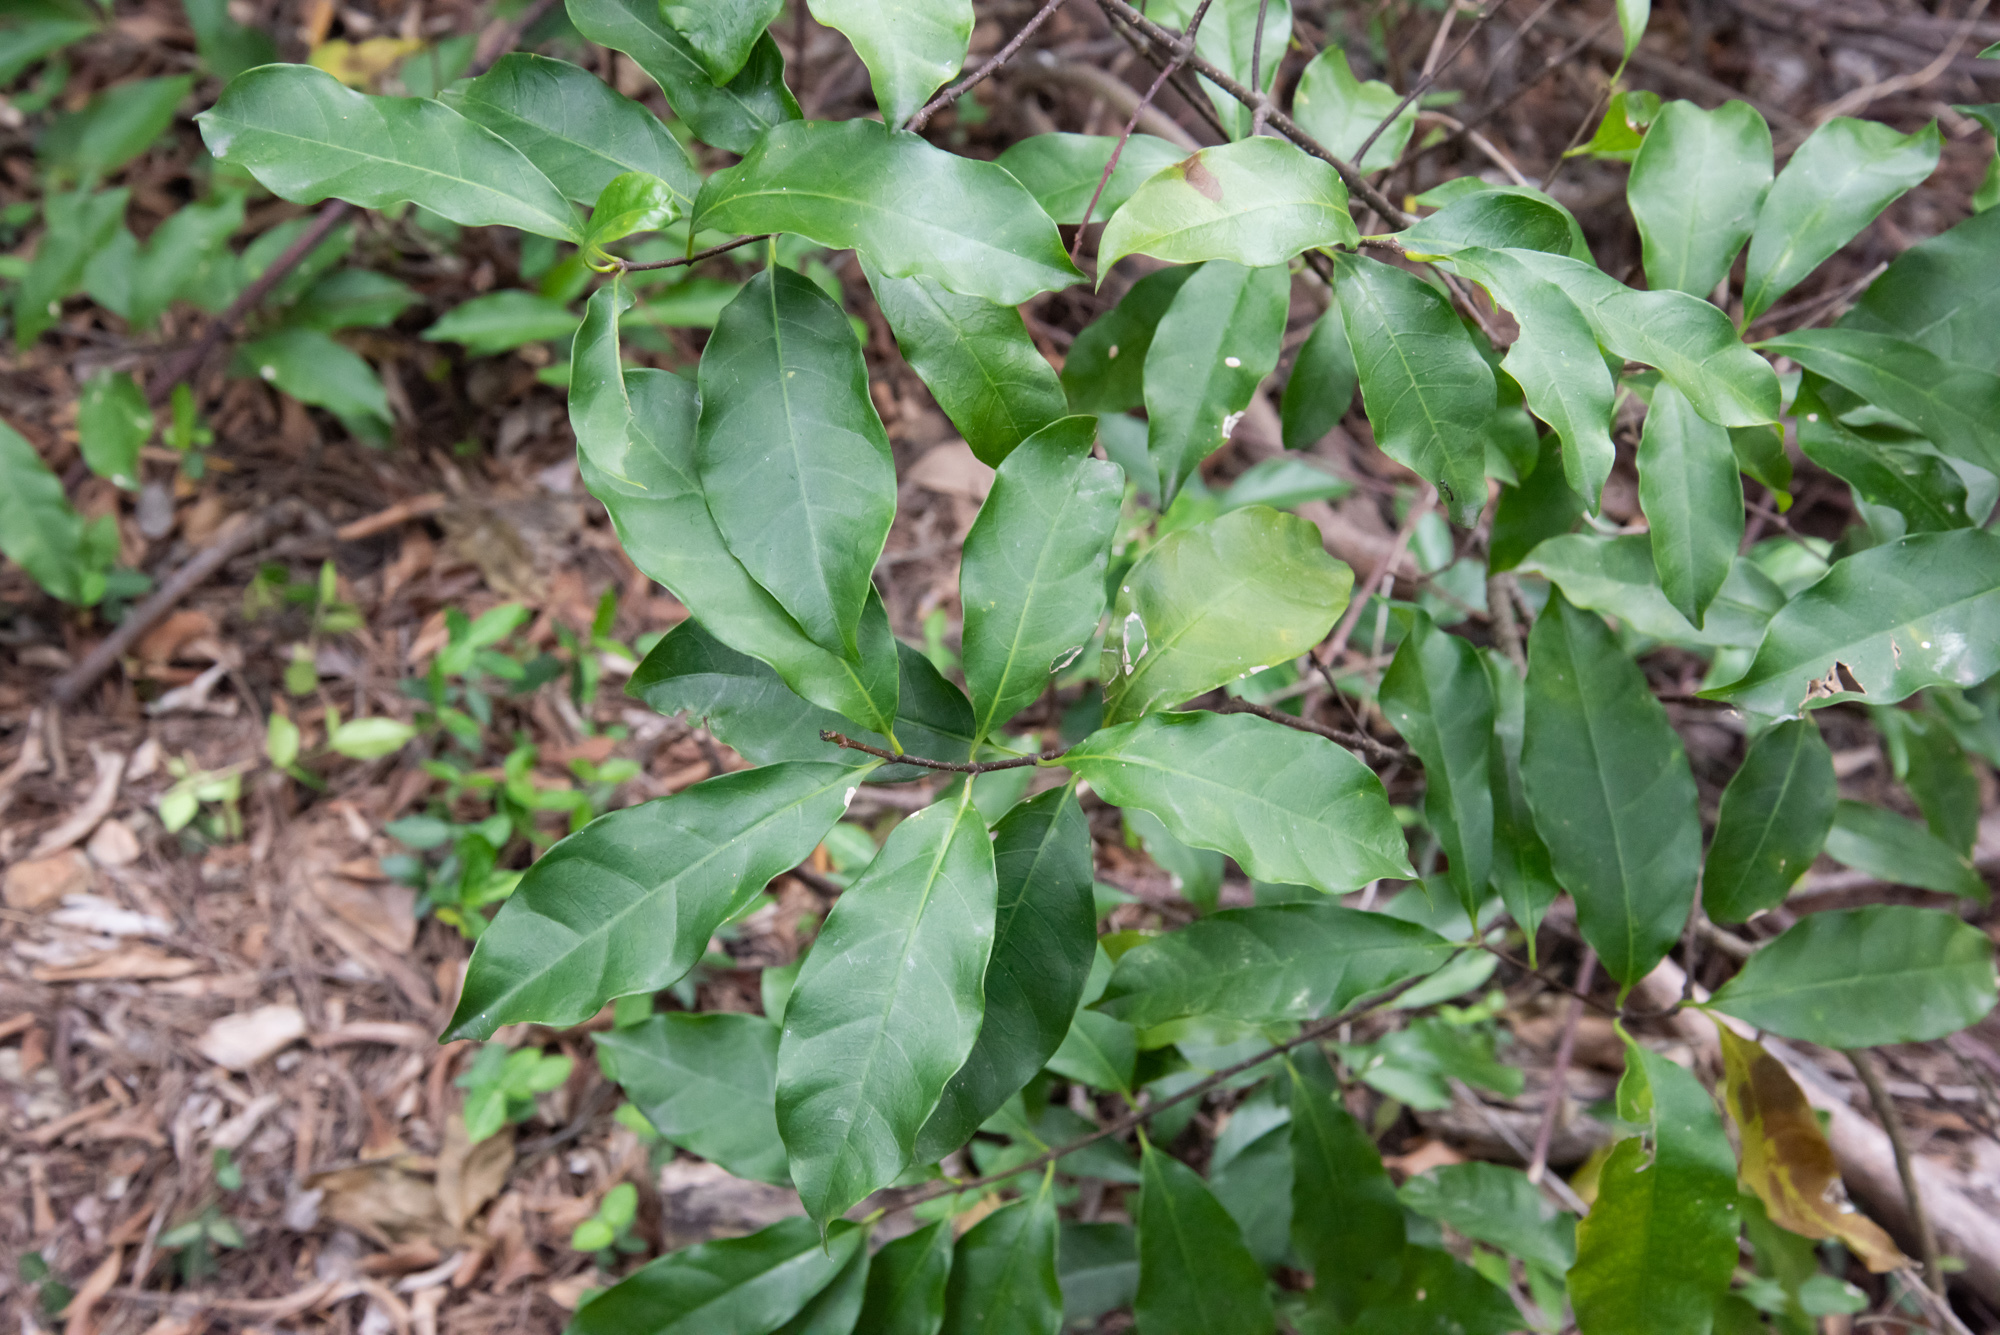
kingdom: Plantae
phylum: Tracheophyta
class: Magnoliopsida
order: Gentianales
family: Apocynaceae
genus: Strophanthus
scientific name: Strophanthus divaricatus
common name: Goat-horns
